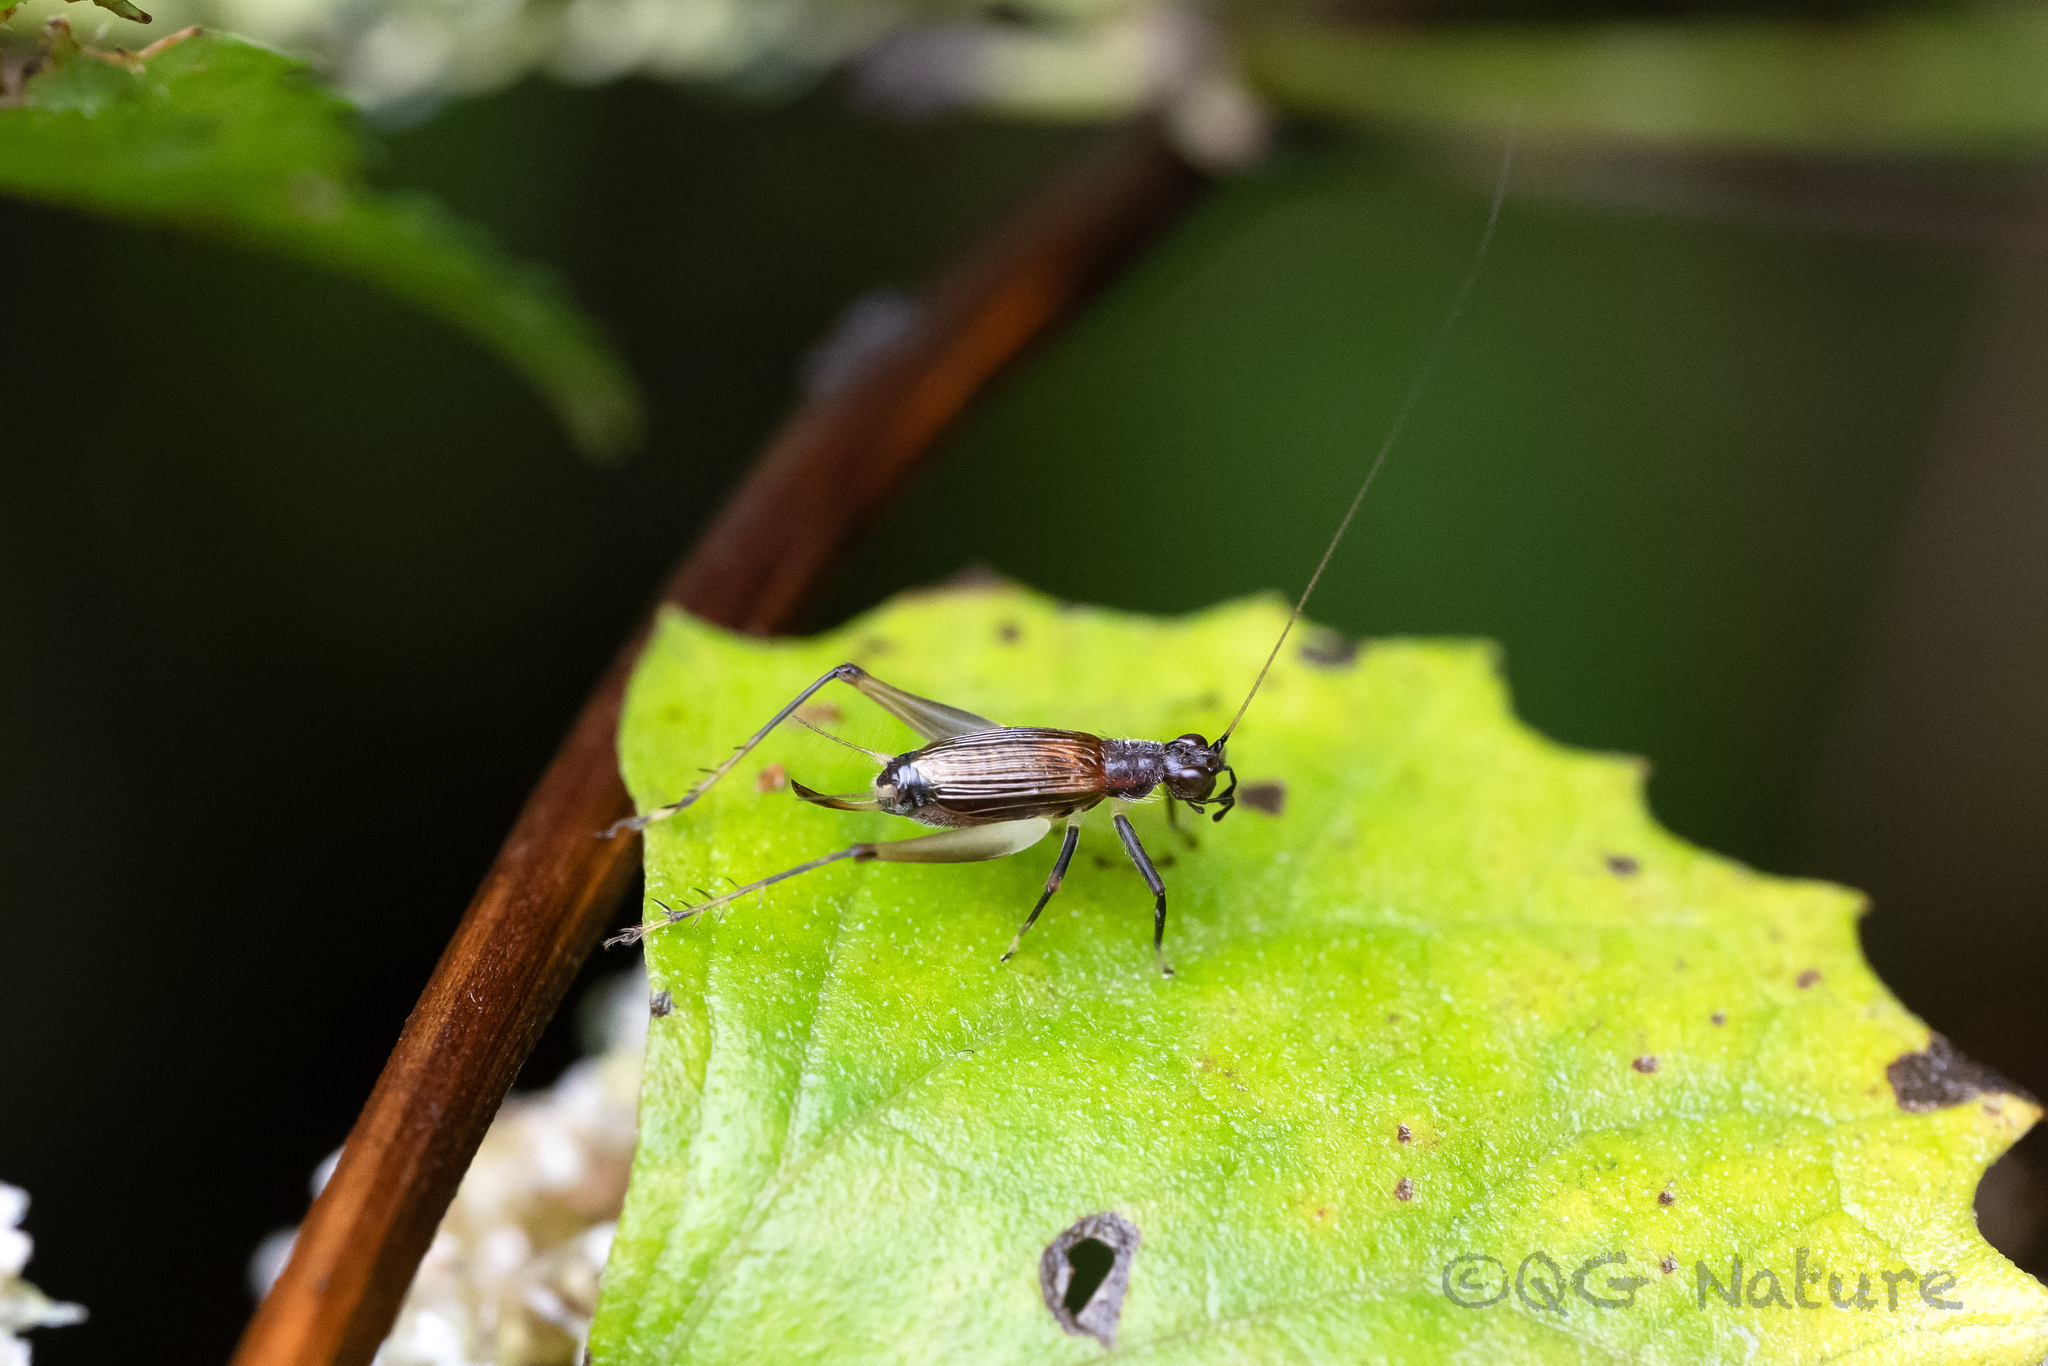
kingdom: Animalia
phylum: Arthropoda
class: Insecta
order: Orthoptera
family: Trigonidiidae
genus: Homoeoxipha
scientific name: Homoeoxipha obliterata
